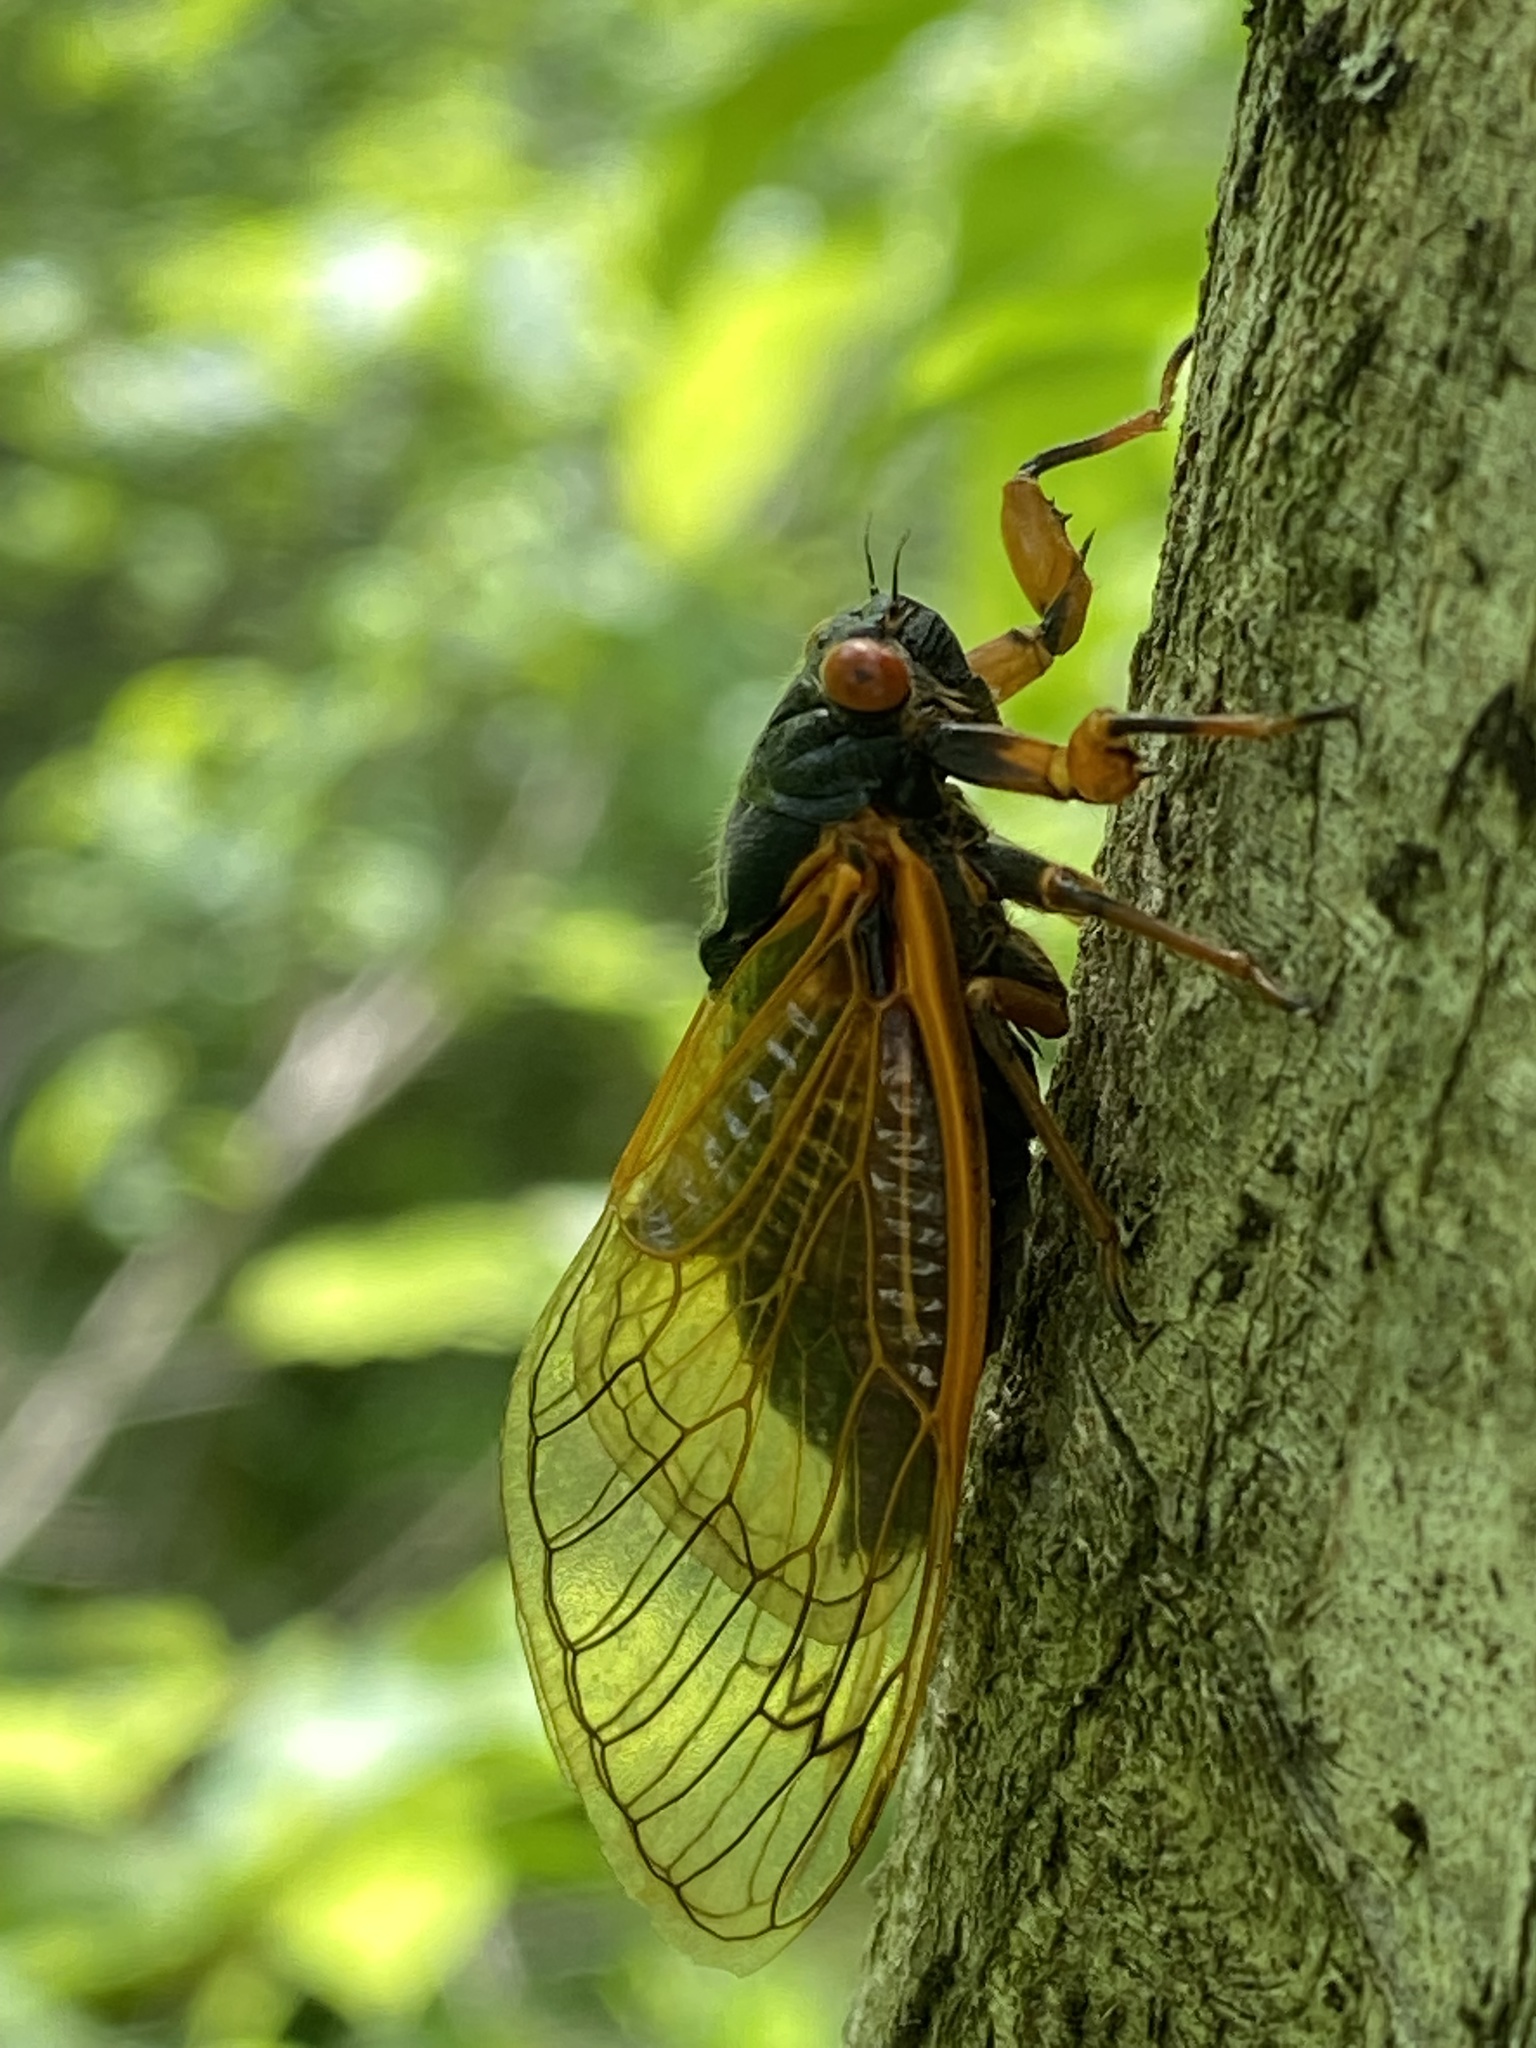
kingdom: Animalia
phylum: Arthropoda
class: Insecta
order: Hemiptera
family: Cicadidae
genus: Magicicada
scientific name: Magicicada cassini
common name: Cassin's 17-year cicada
